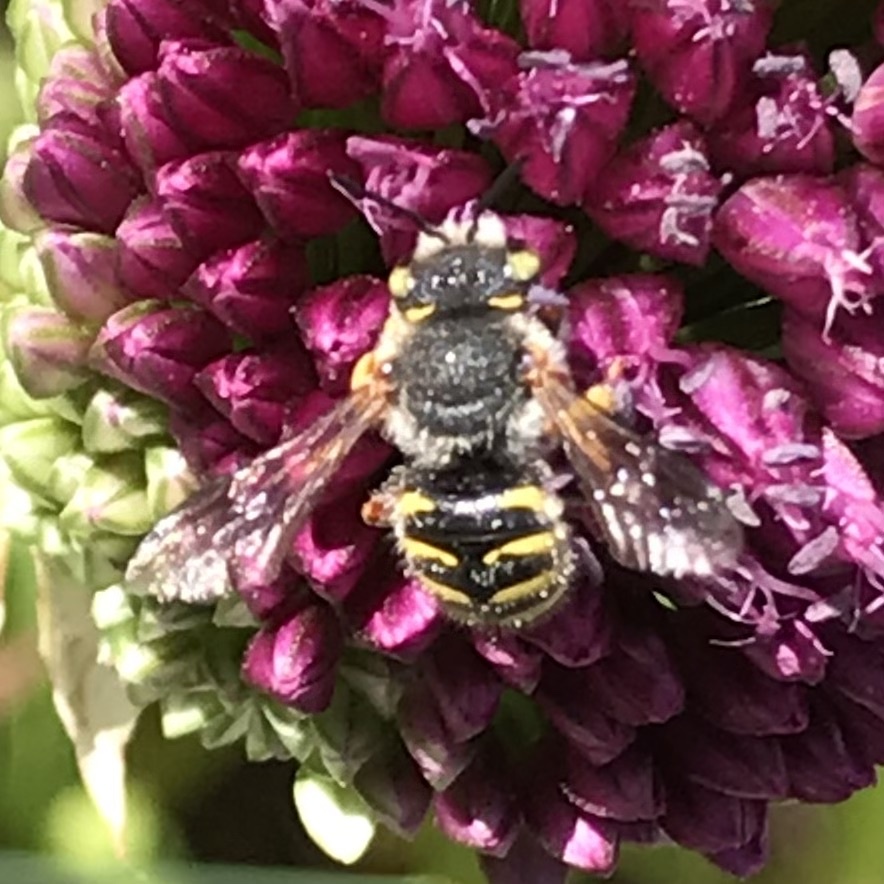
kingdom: Animalia
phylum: Arthropoda
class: Insecta
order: Hymenoptera
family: Megachilidae
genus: Anthidium
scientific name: Anthidium oblongatum
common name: Oblong wool carder bee
